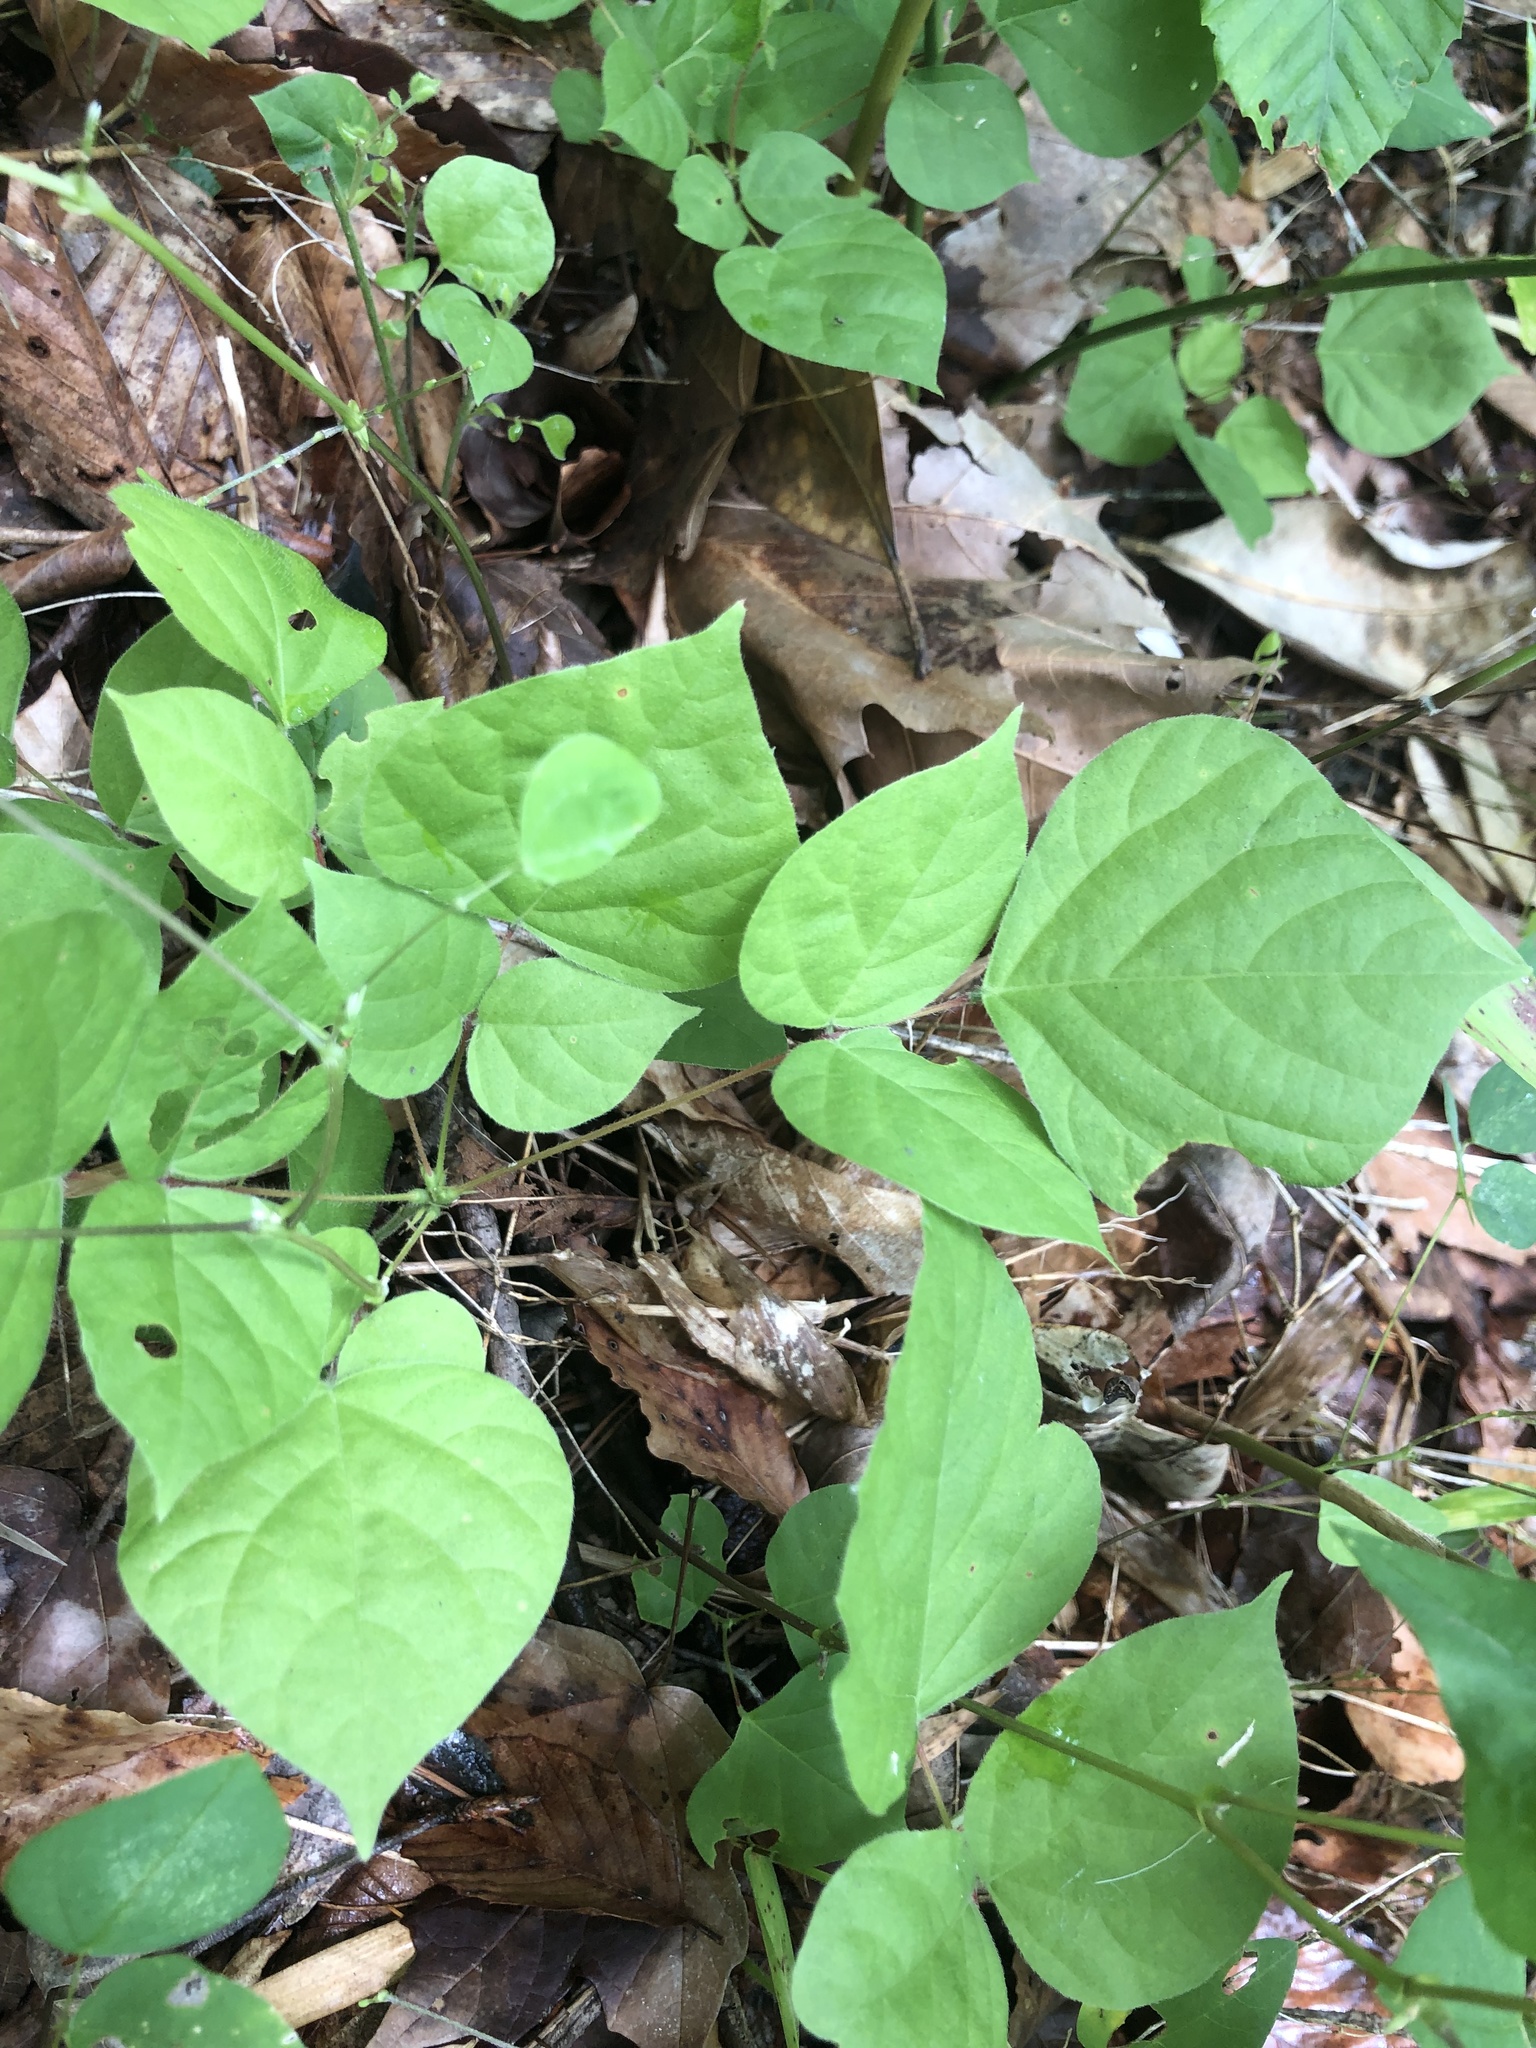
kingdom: Plantae
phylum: Tracheophyta
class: Magnoliopsida
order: Fabales
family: Fabaceae
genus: Hylodesmum
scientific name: Hylodesmum glutinosum
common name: Clustered-leaved tick-trefoil
